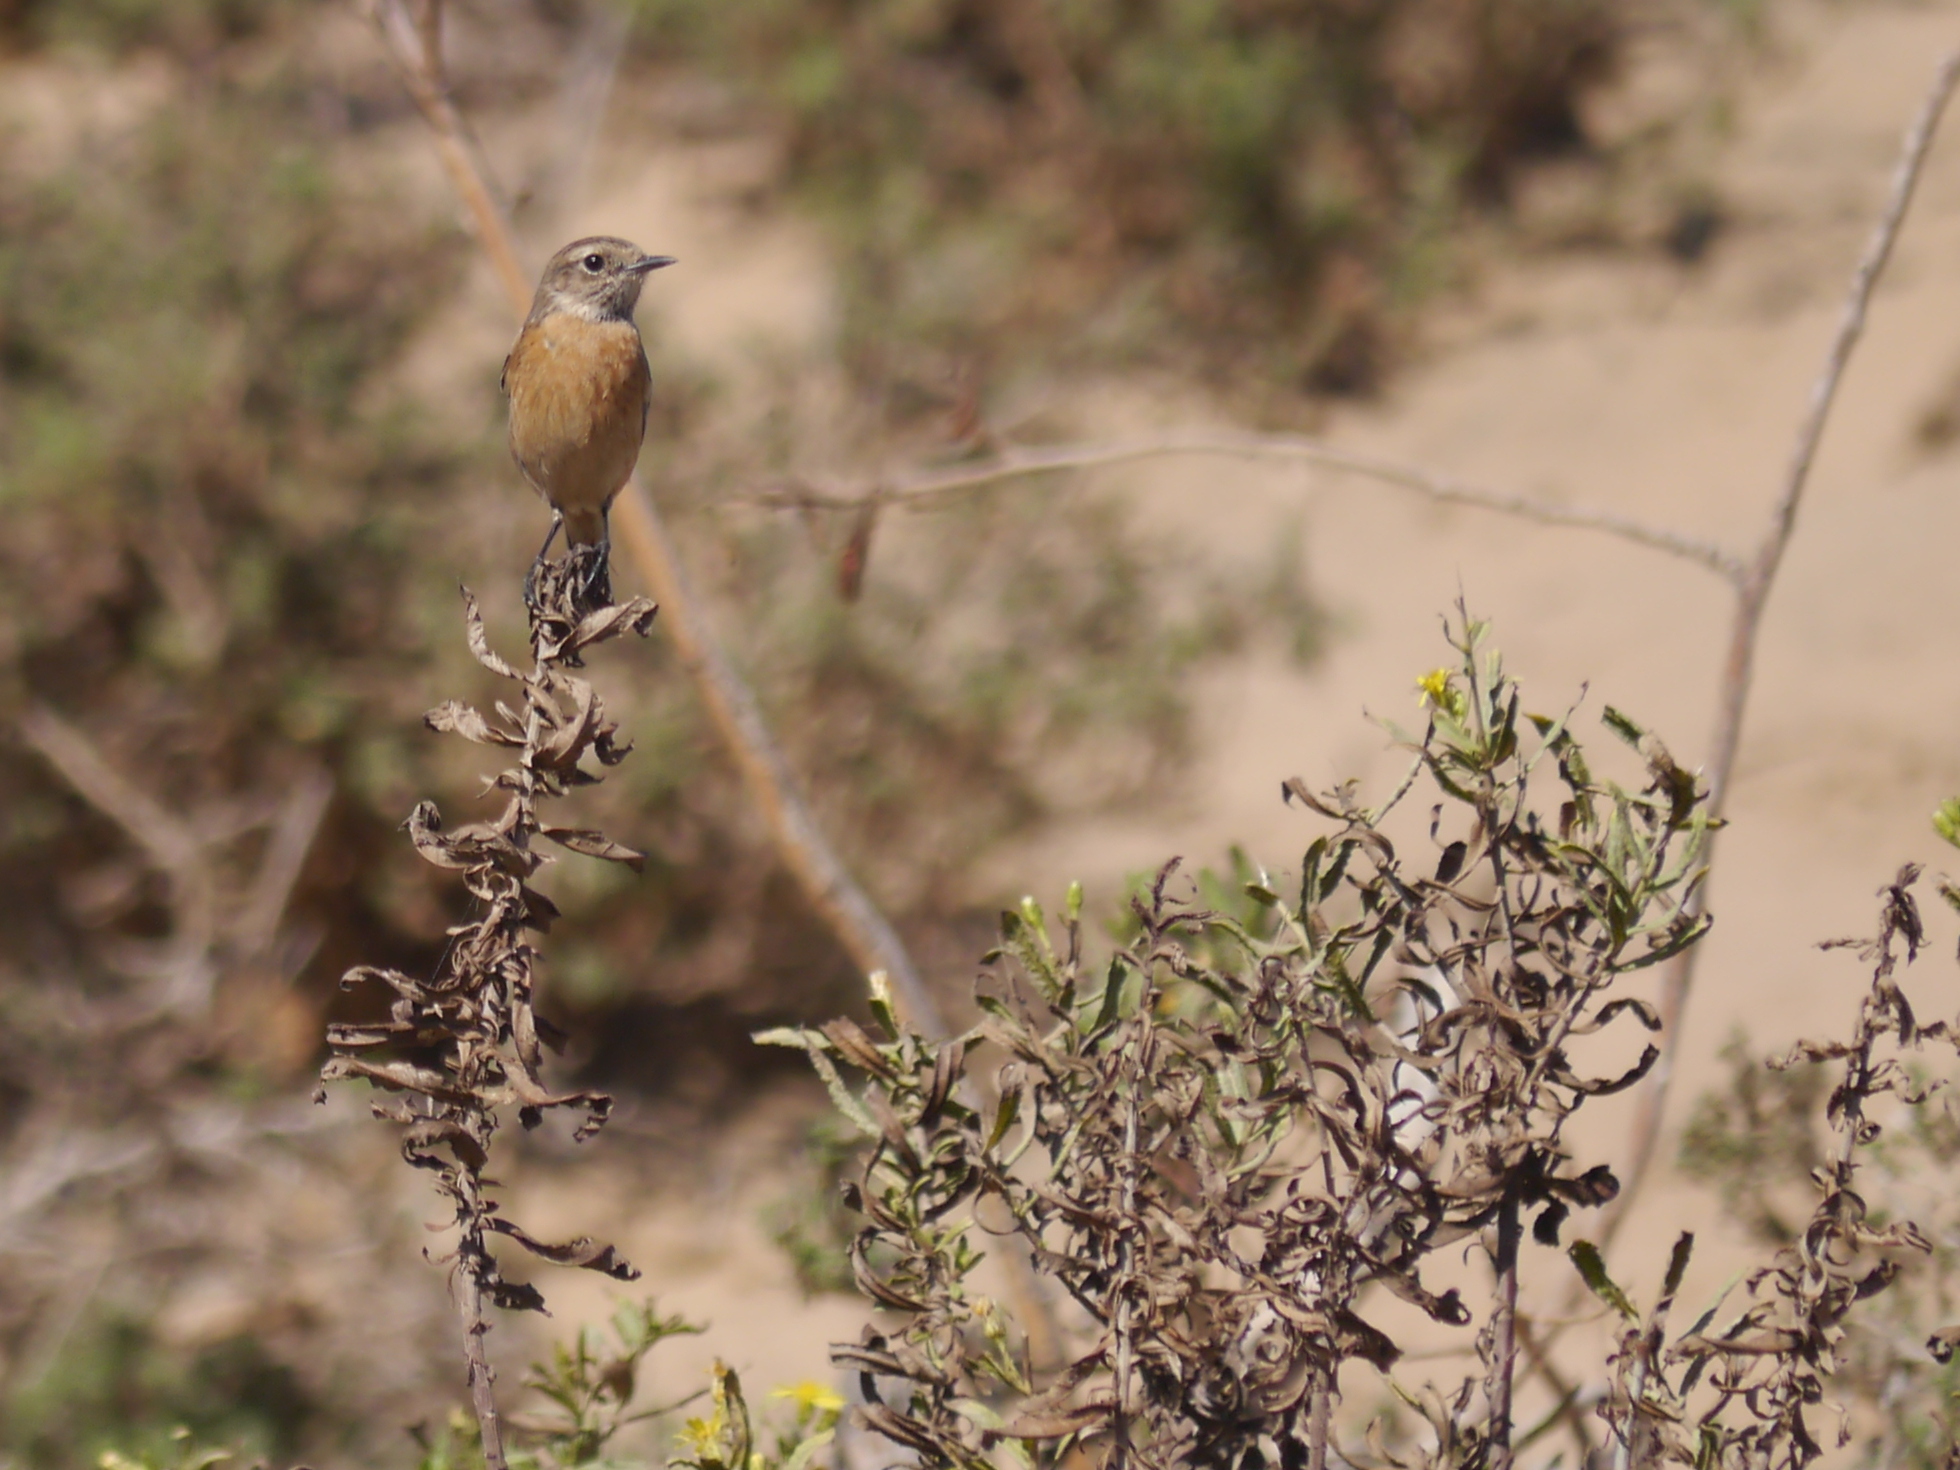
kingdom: Animalia
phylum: Chordata
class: Aves
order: Passeriformes
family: Muscicapidae
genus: Saxicola
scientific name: Saxicola rubicola
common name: European stonechat
